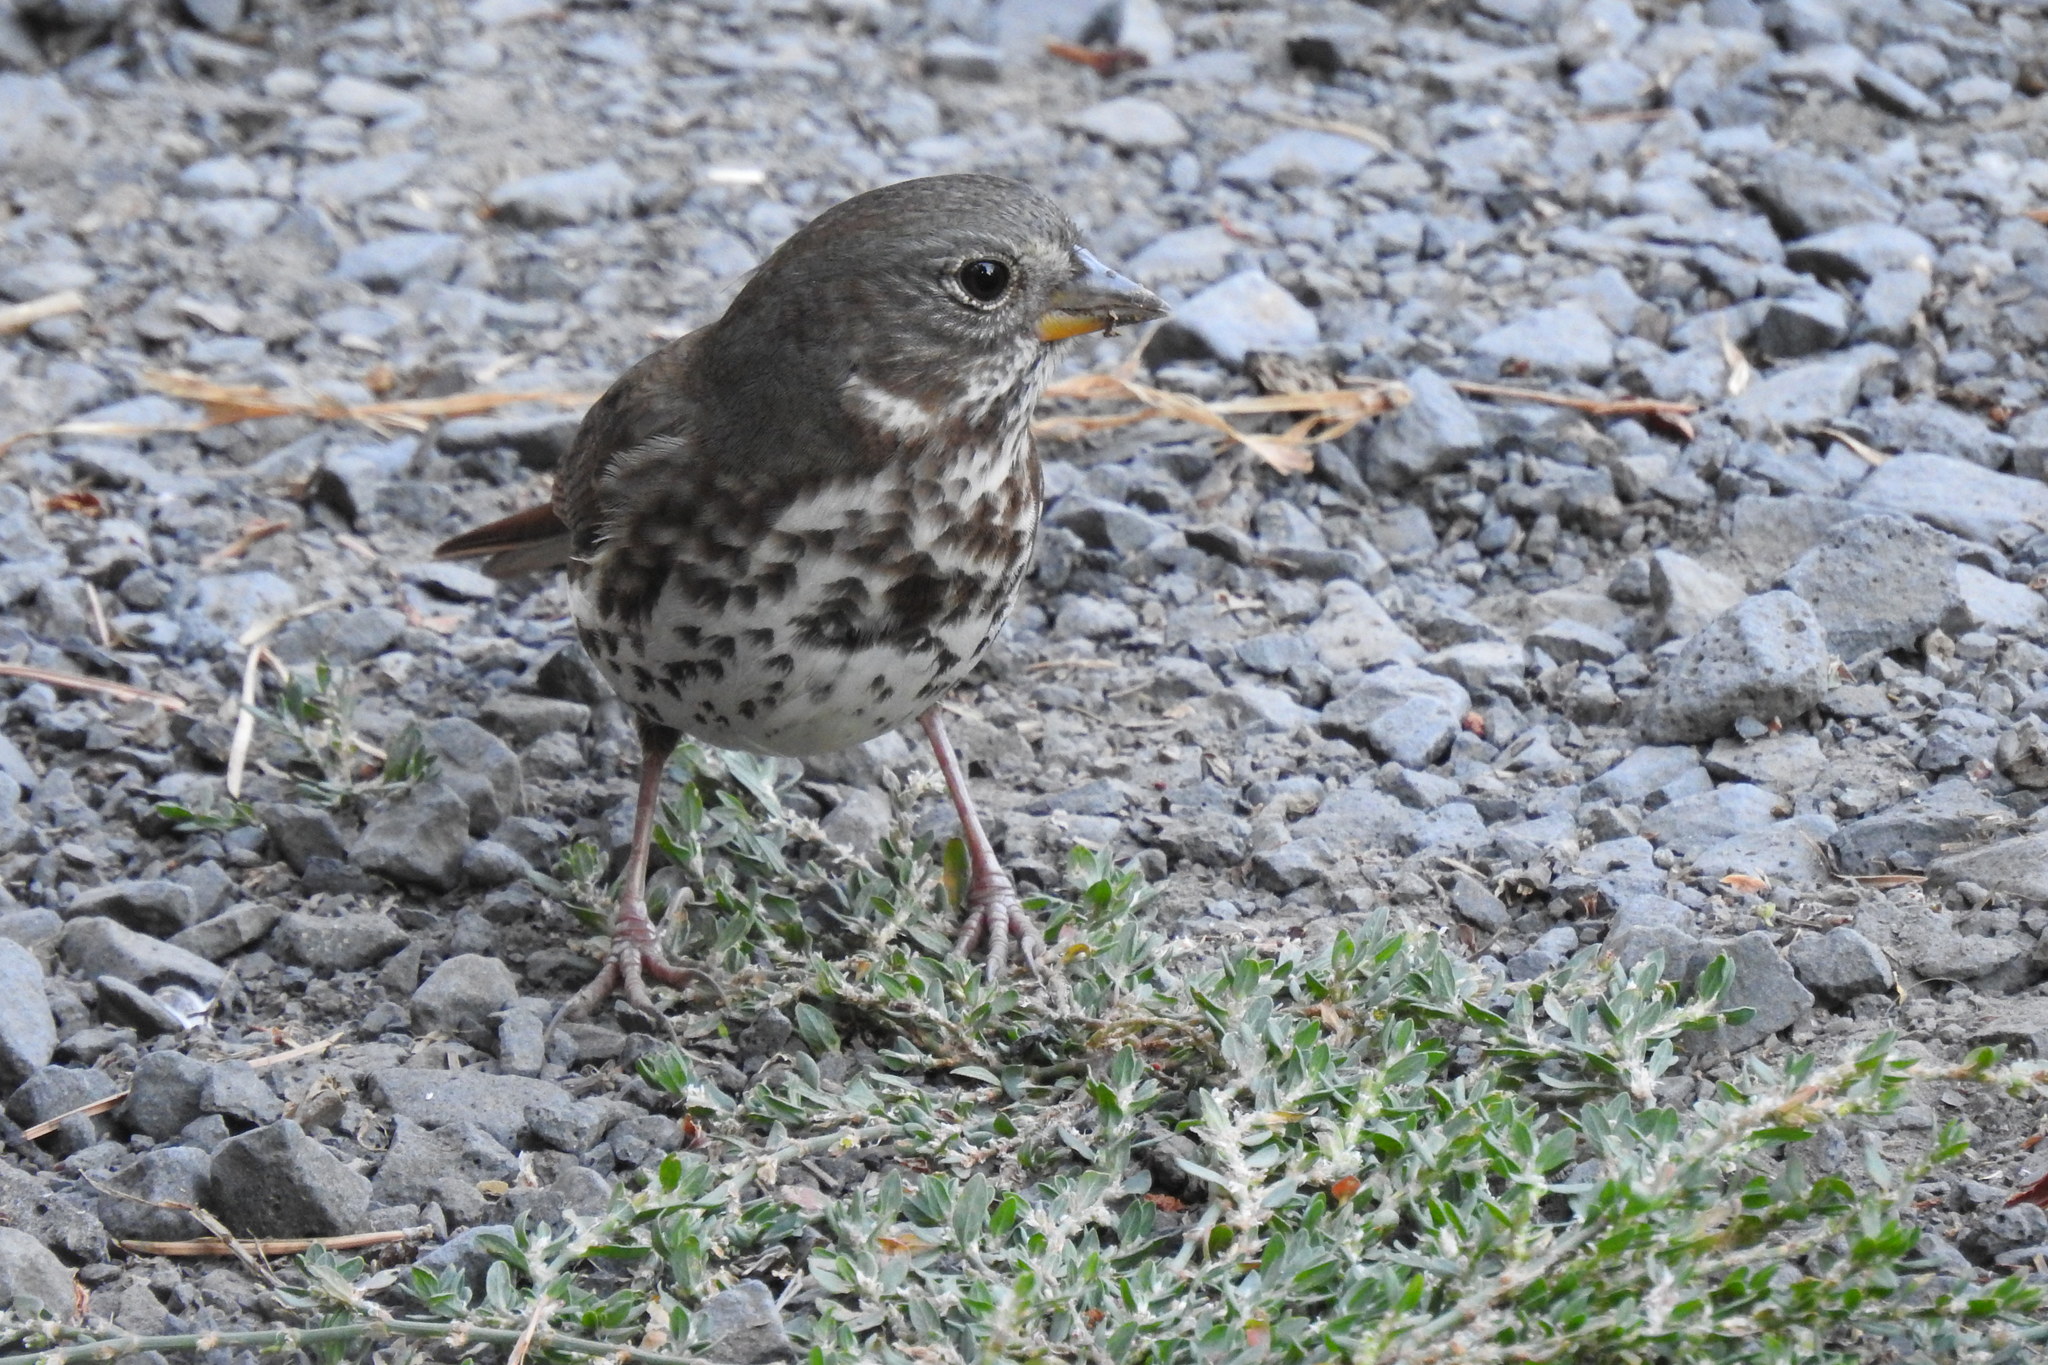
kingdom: Animalia
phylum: Chordata
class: Aves
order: Passeriformes
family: Passerellidae
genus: Passerella
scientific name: Passerella iliaca
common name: Fox sparrow
